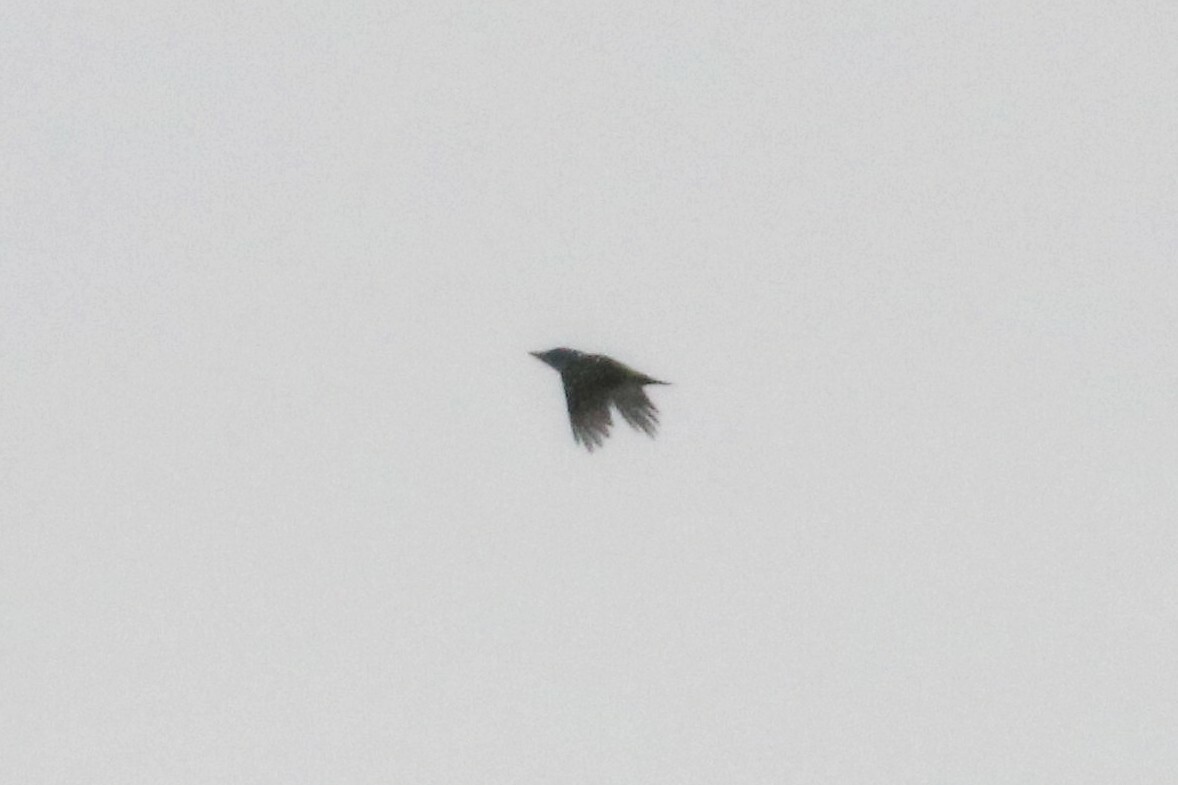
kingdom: Animalia
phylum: Chordata
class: Aves
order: Piciformes
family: Picidae
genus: Picus
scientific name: Picus canus
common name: Grey-headed woodpecker
